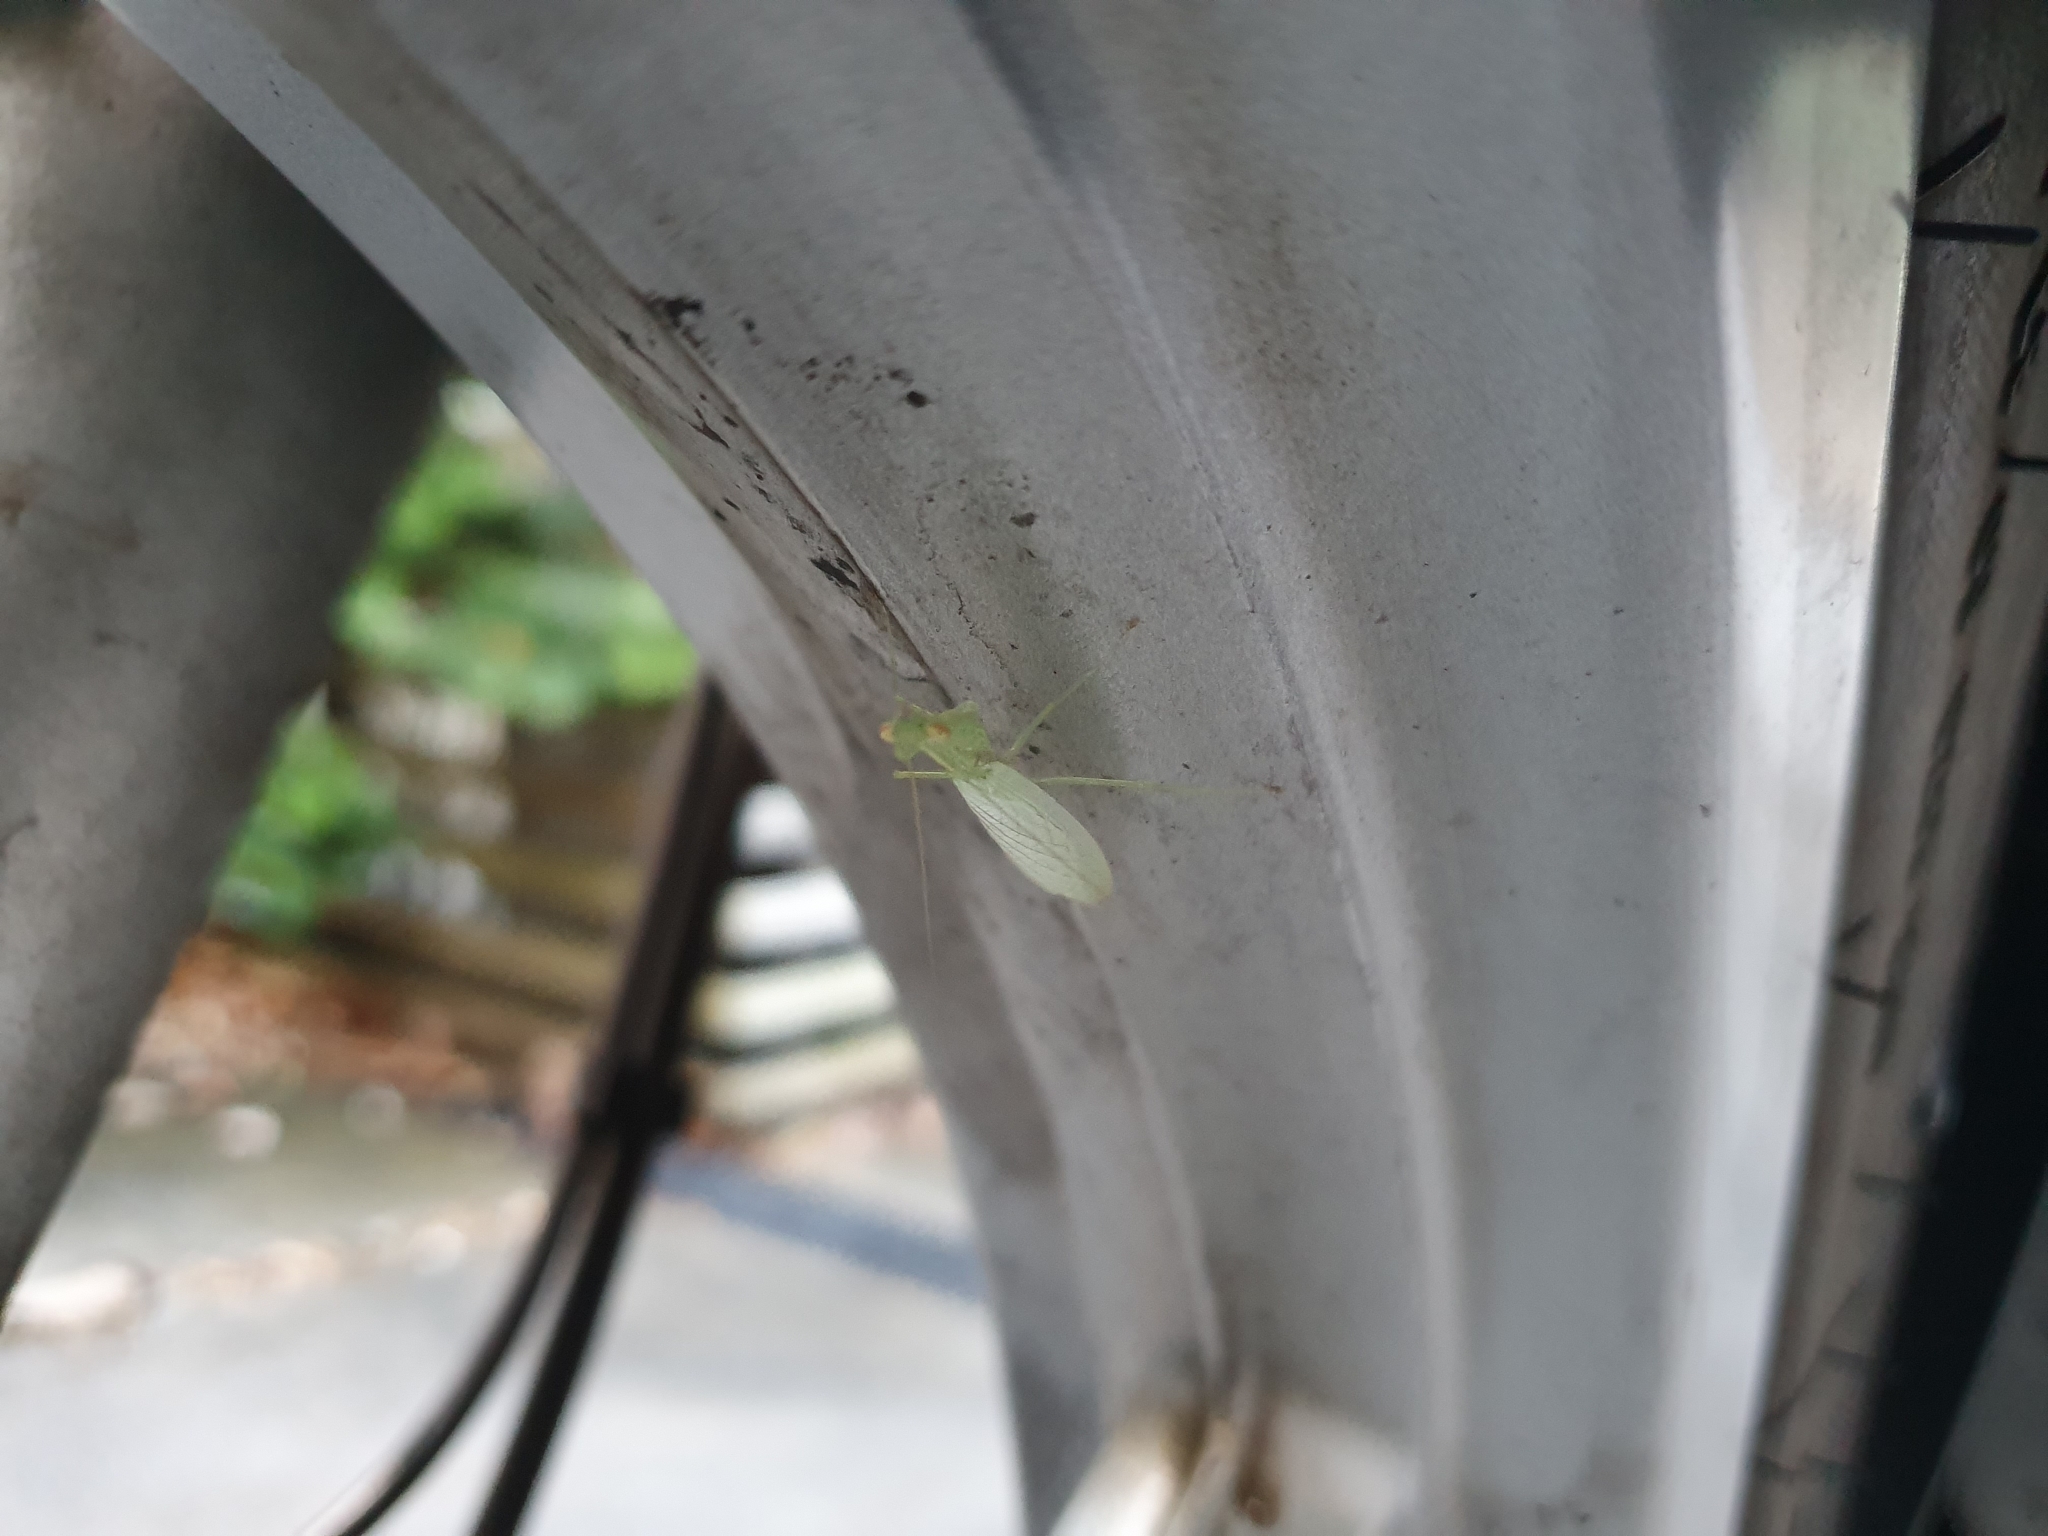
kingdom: Animalia
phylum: Arthropoda
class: Insecta
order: Mantodea
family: Nanomantidae
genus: Kongobatha
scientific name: Kongobatha diademata
